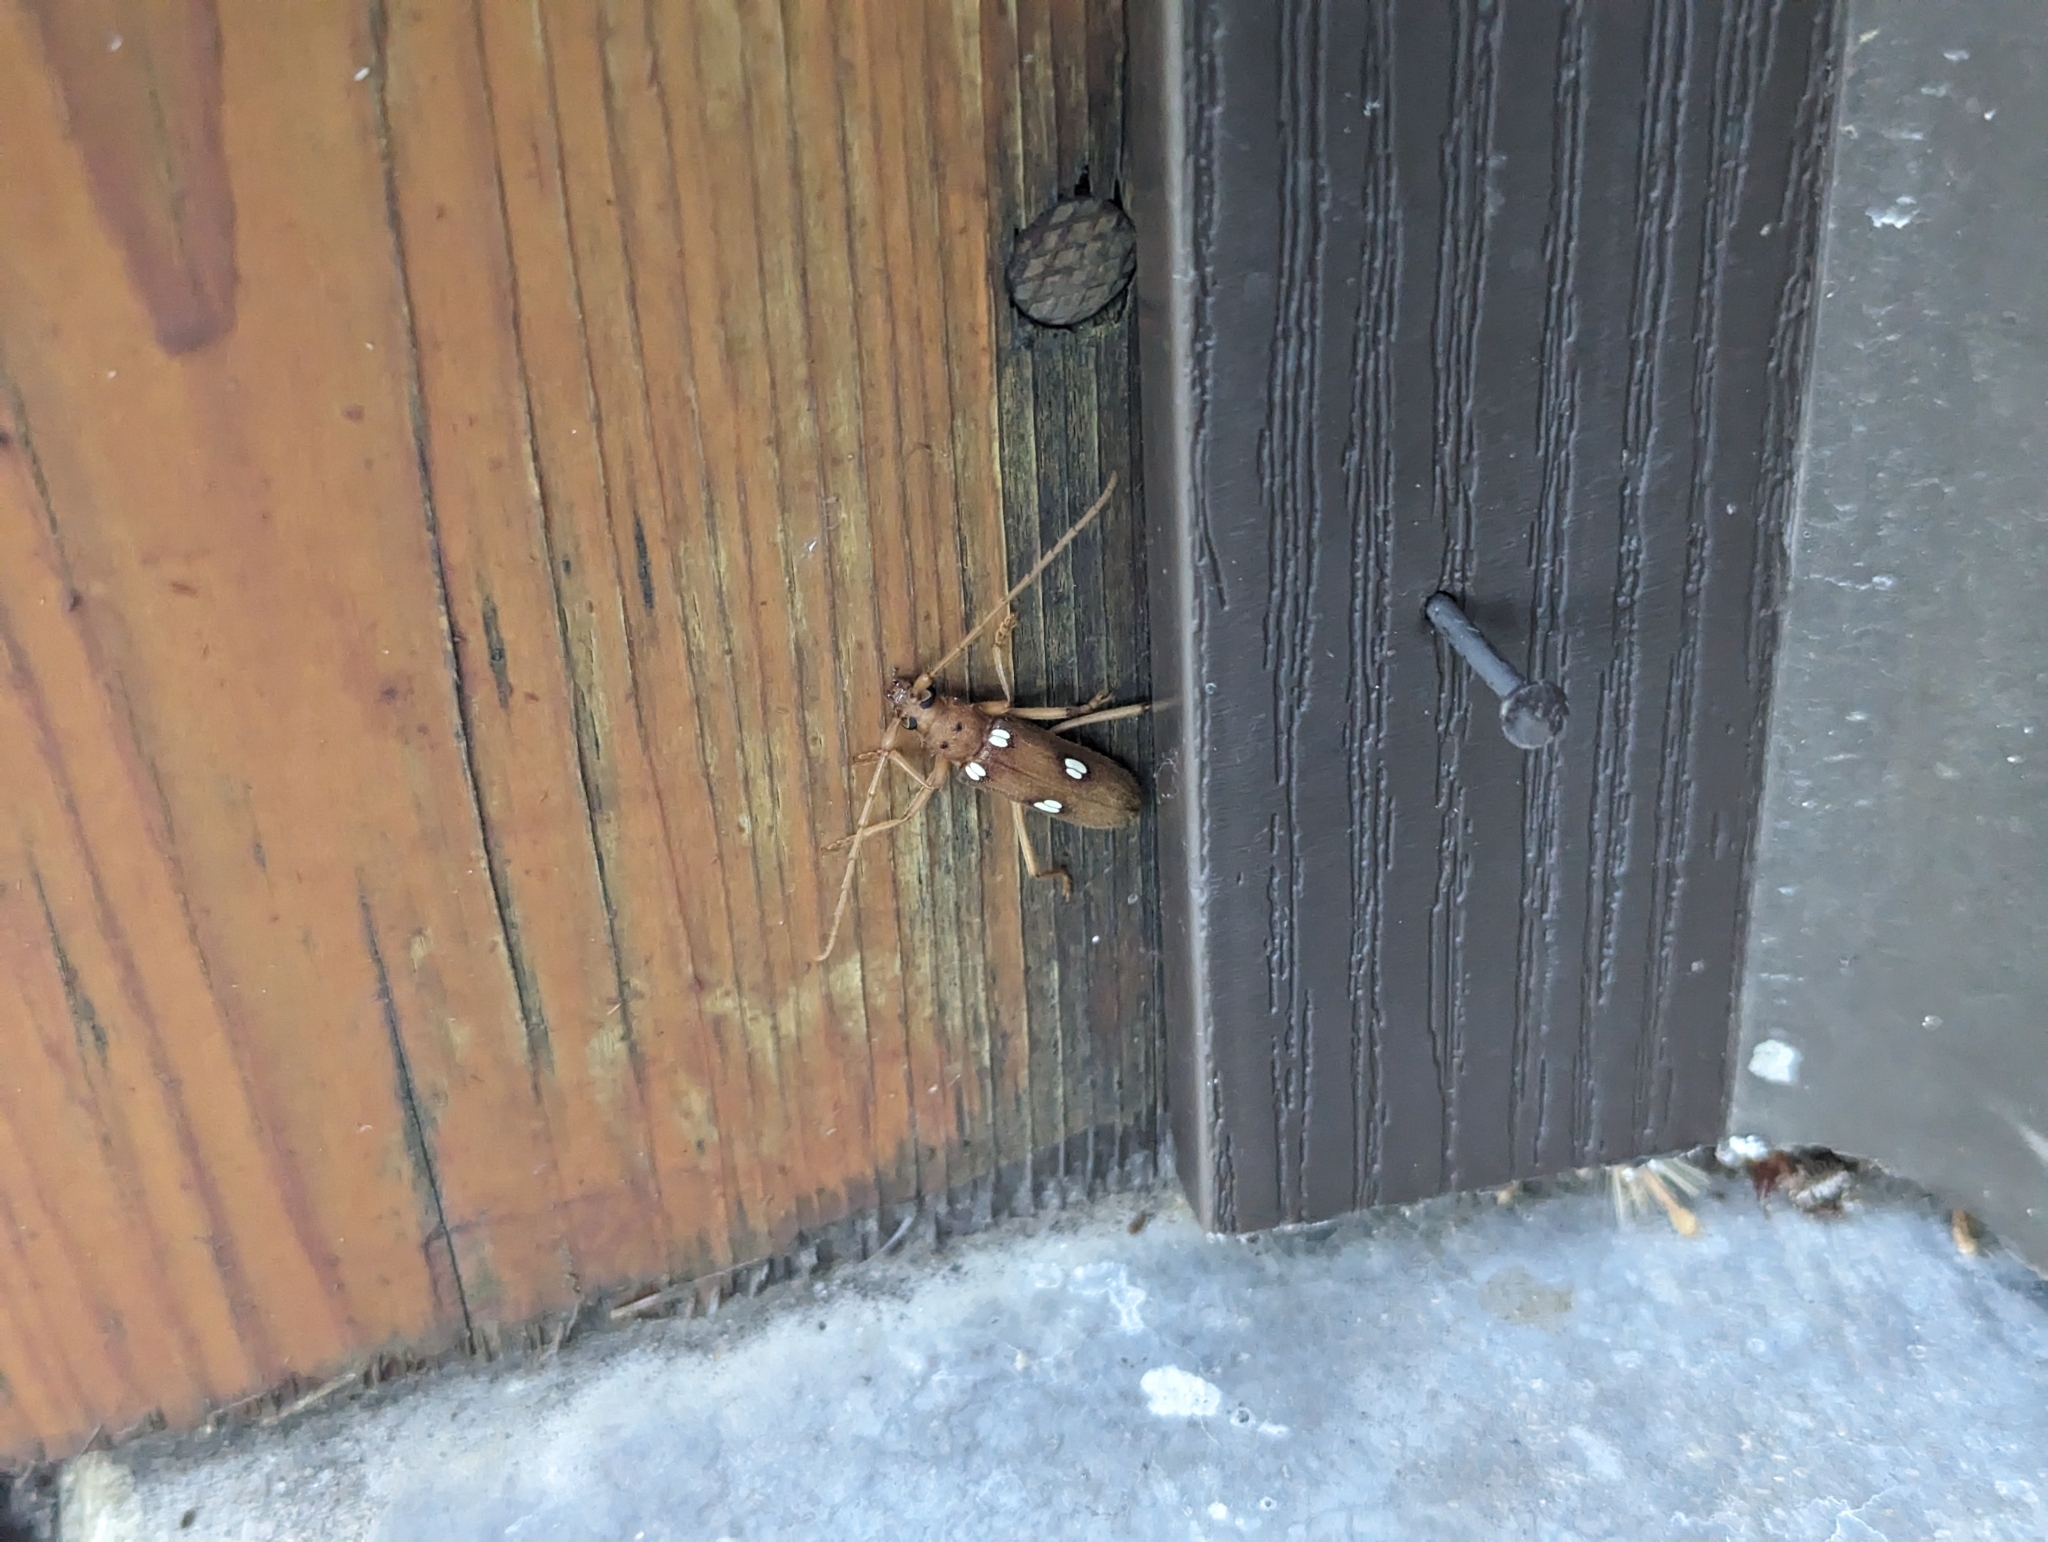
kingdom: Animalia
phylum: Arthropoda
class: Insecta
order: Coleoptera
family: Cerambycidae
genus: Eburia
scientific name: Eburia quadrigeminata
